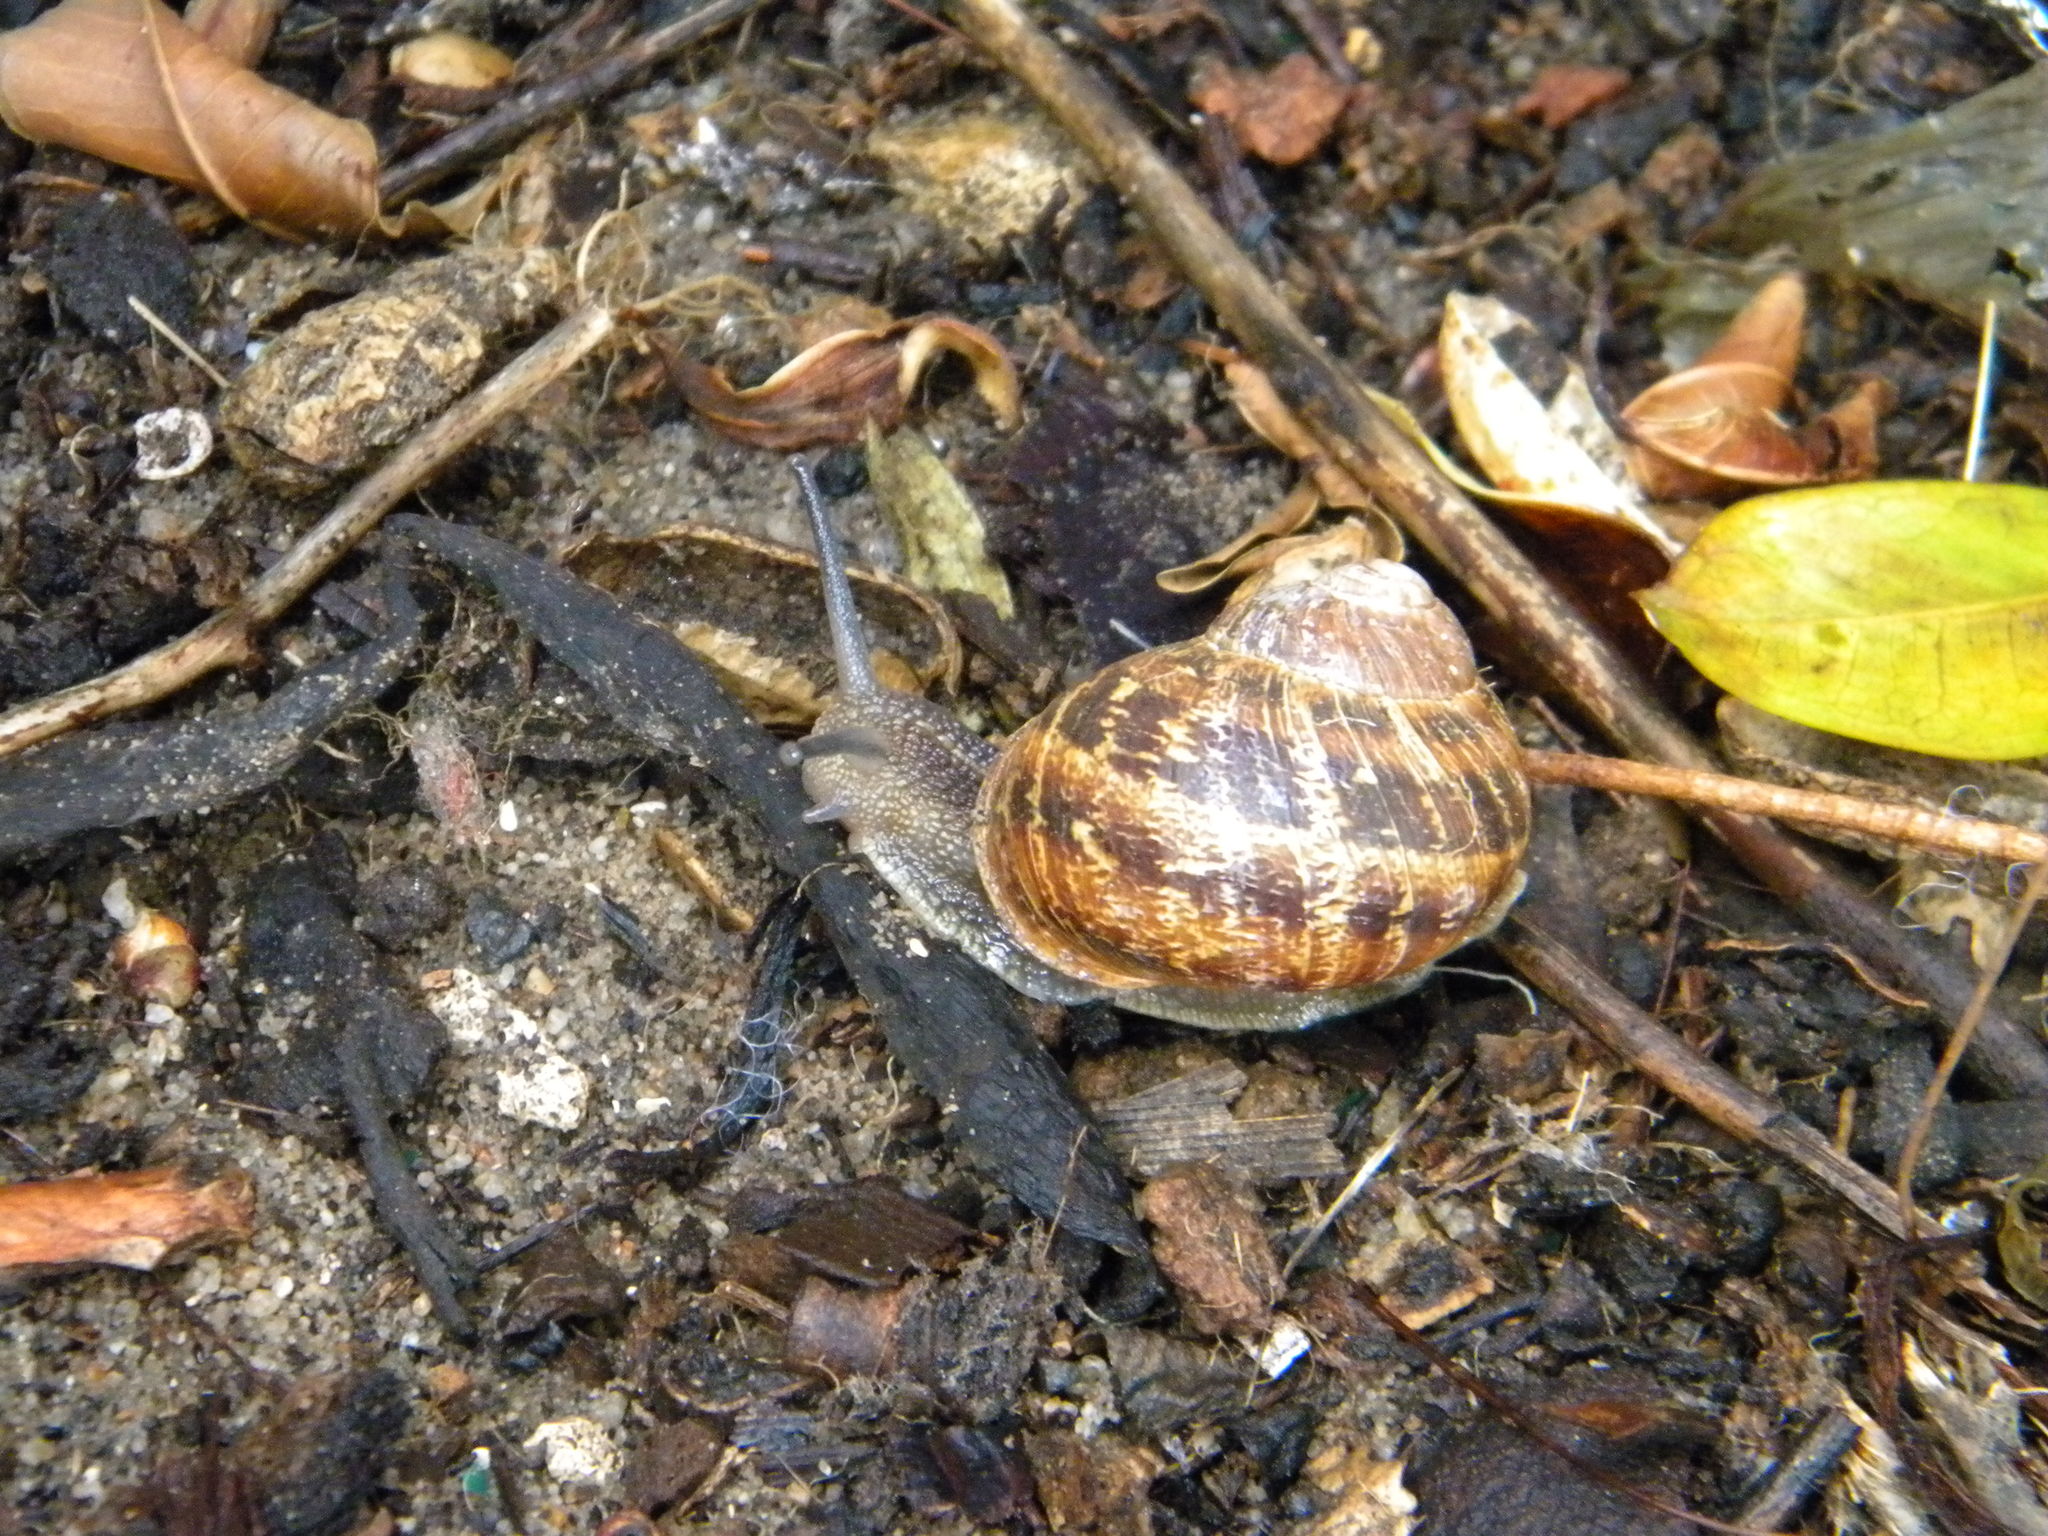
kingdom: Animalia
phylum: Mollusca
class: Gastropoda
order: Stylommatophora
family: Helicidae
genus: Cornu
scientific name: Cornu aspersum
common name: Brown garden snail
